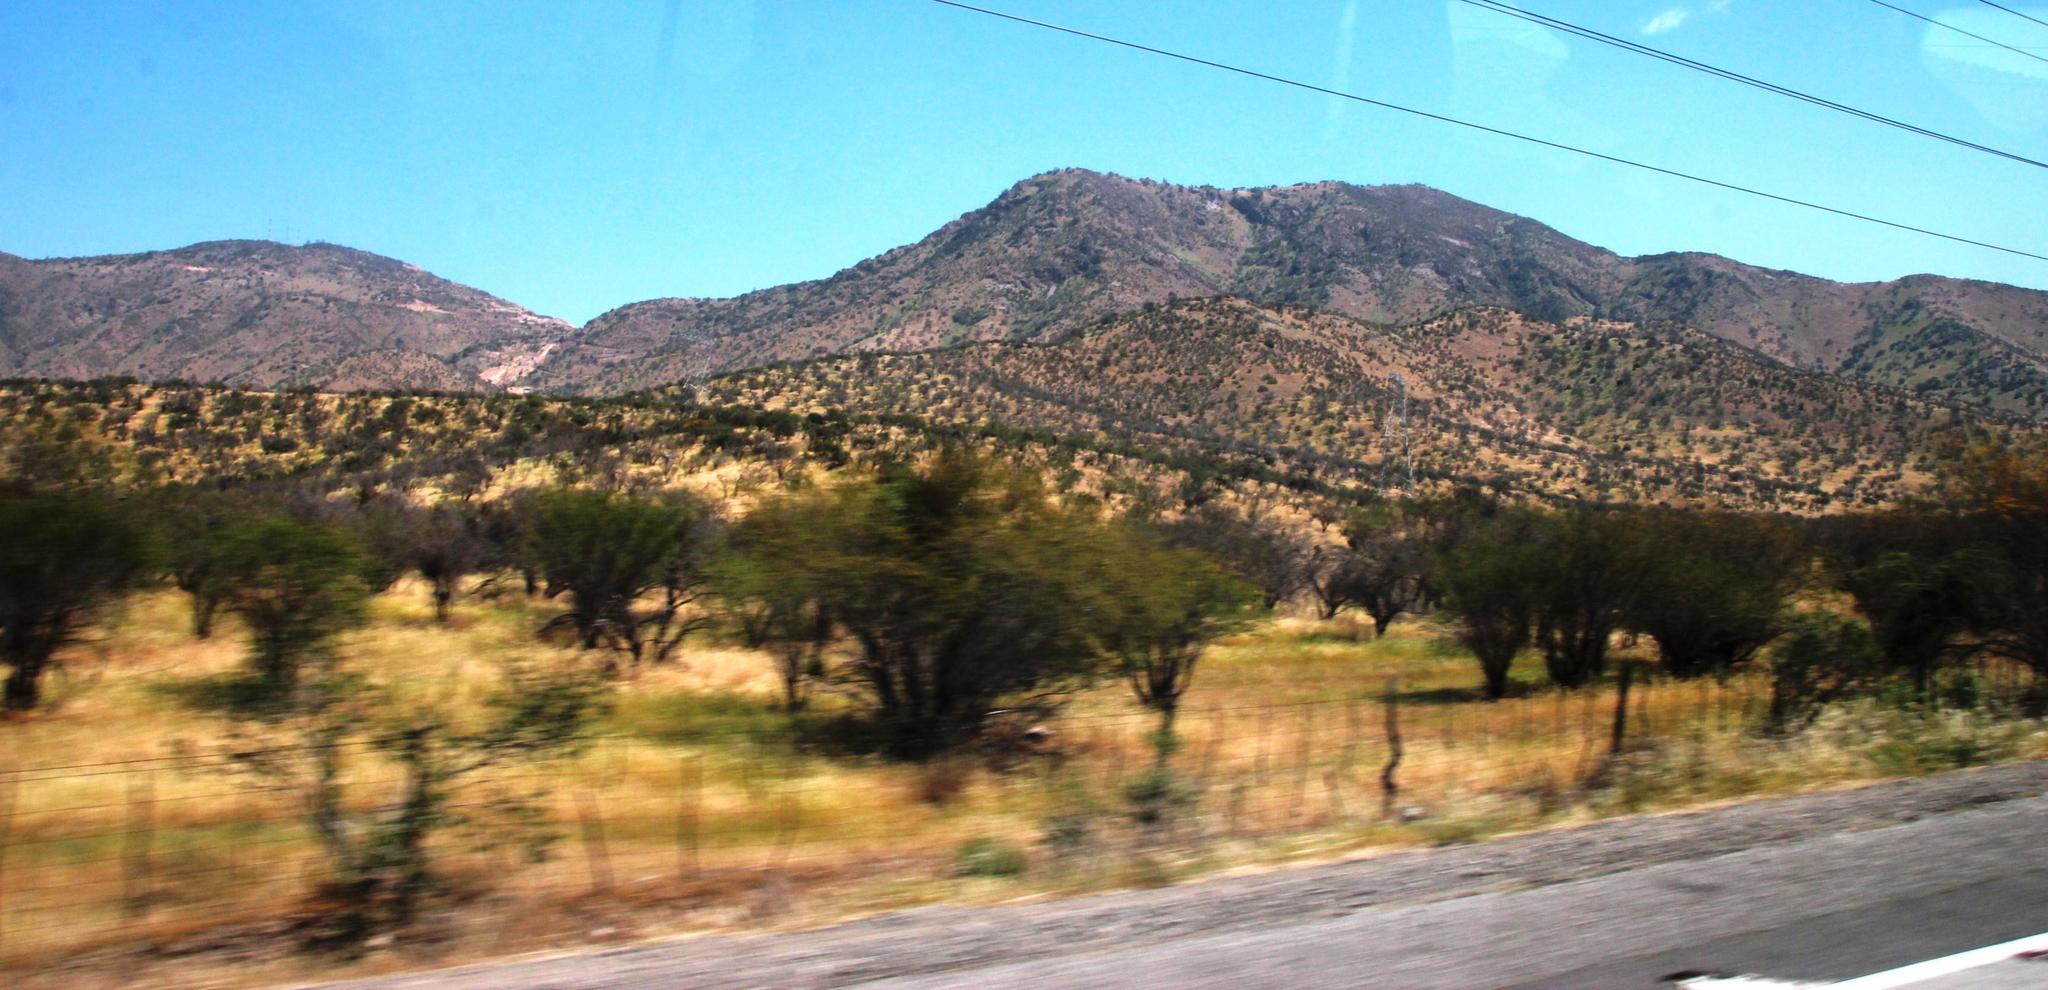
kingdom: Plantae
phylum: Tracheophyta
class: Magnoliopsida
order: Fabales
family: Fabaceae
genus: Vachellia
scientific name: Vachellia caven
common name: Roman cassie
